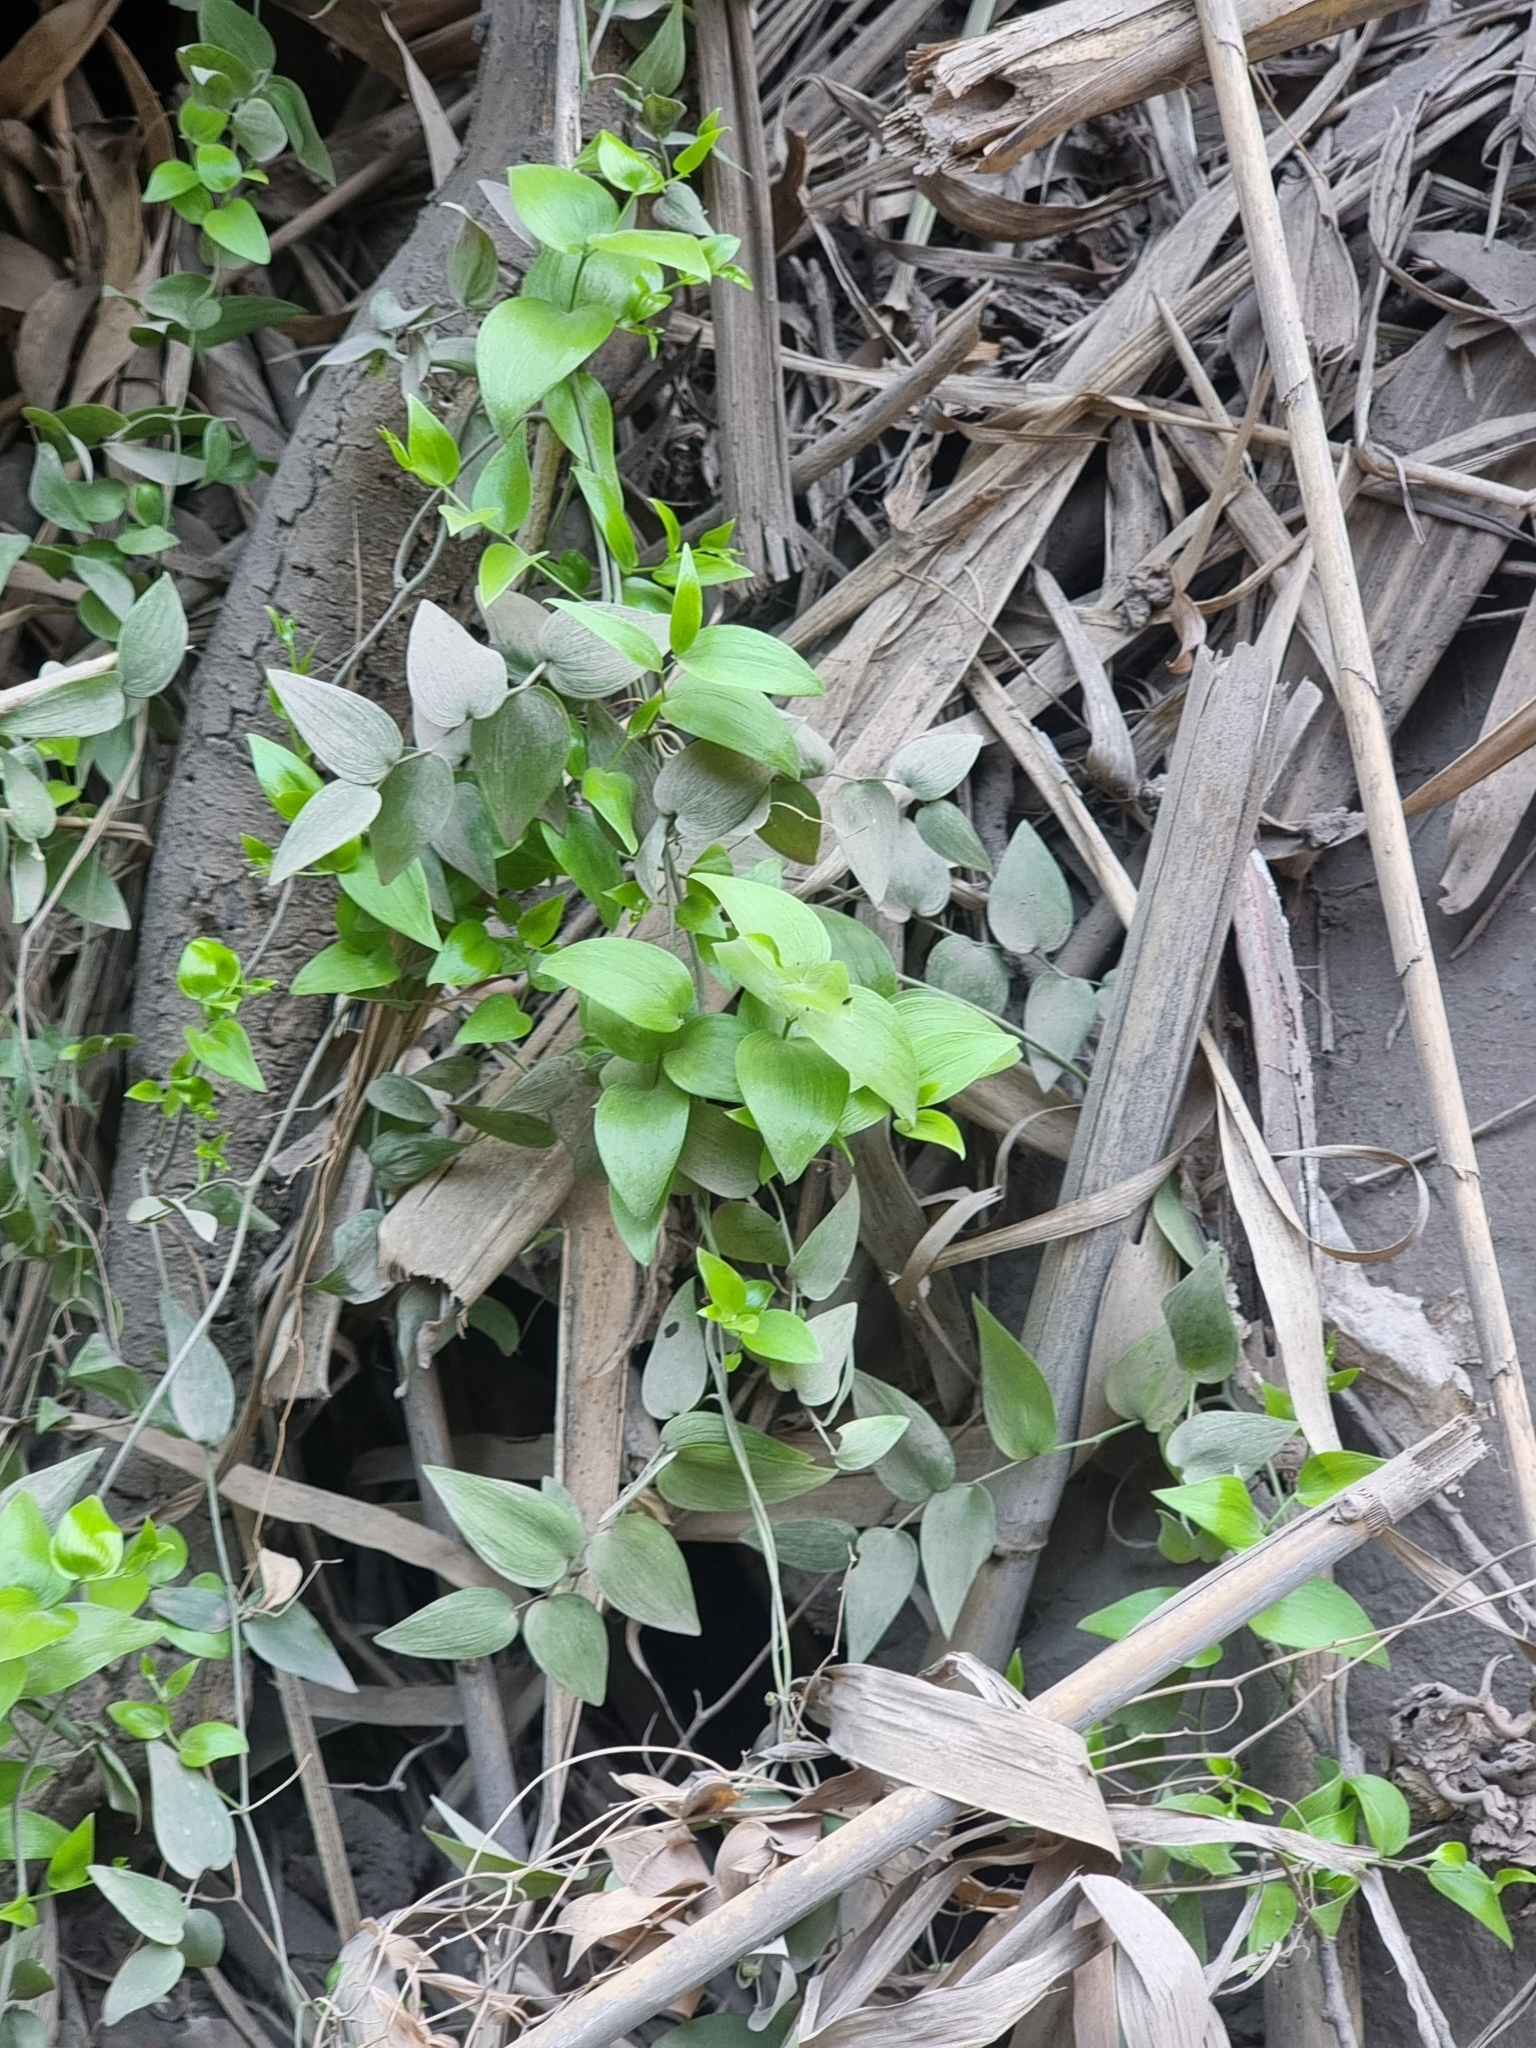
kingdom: Plantae
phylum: Tracheophyta
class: Liliopsida
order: Asparagales
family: Asparagaceae
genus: Asparagus
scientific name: Asparagus asparagoides
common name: African asparagus fern
